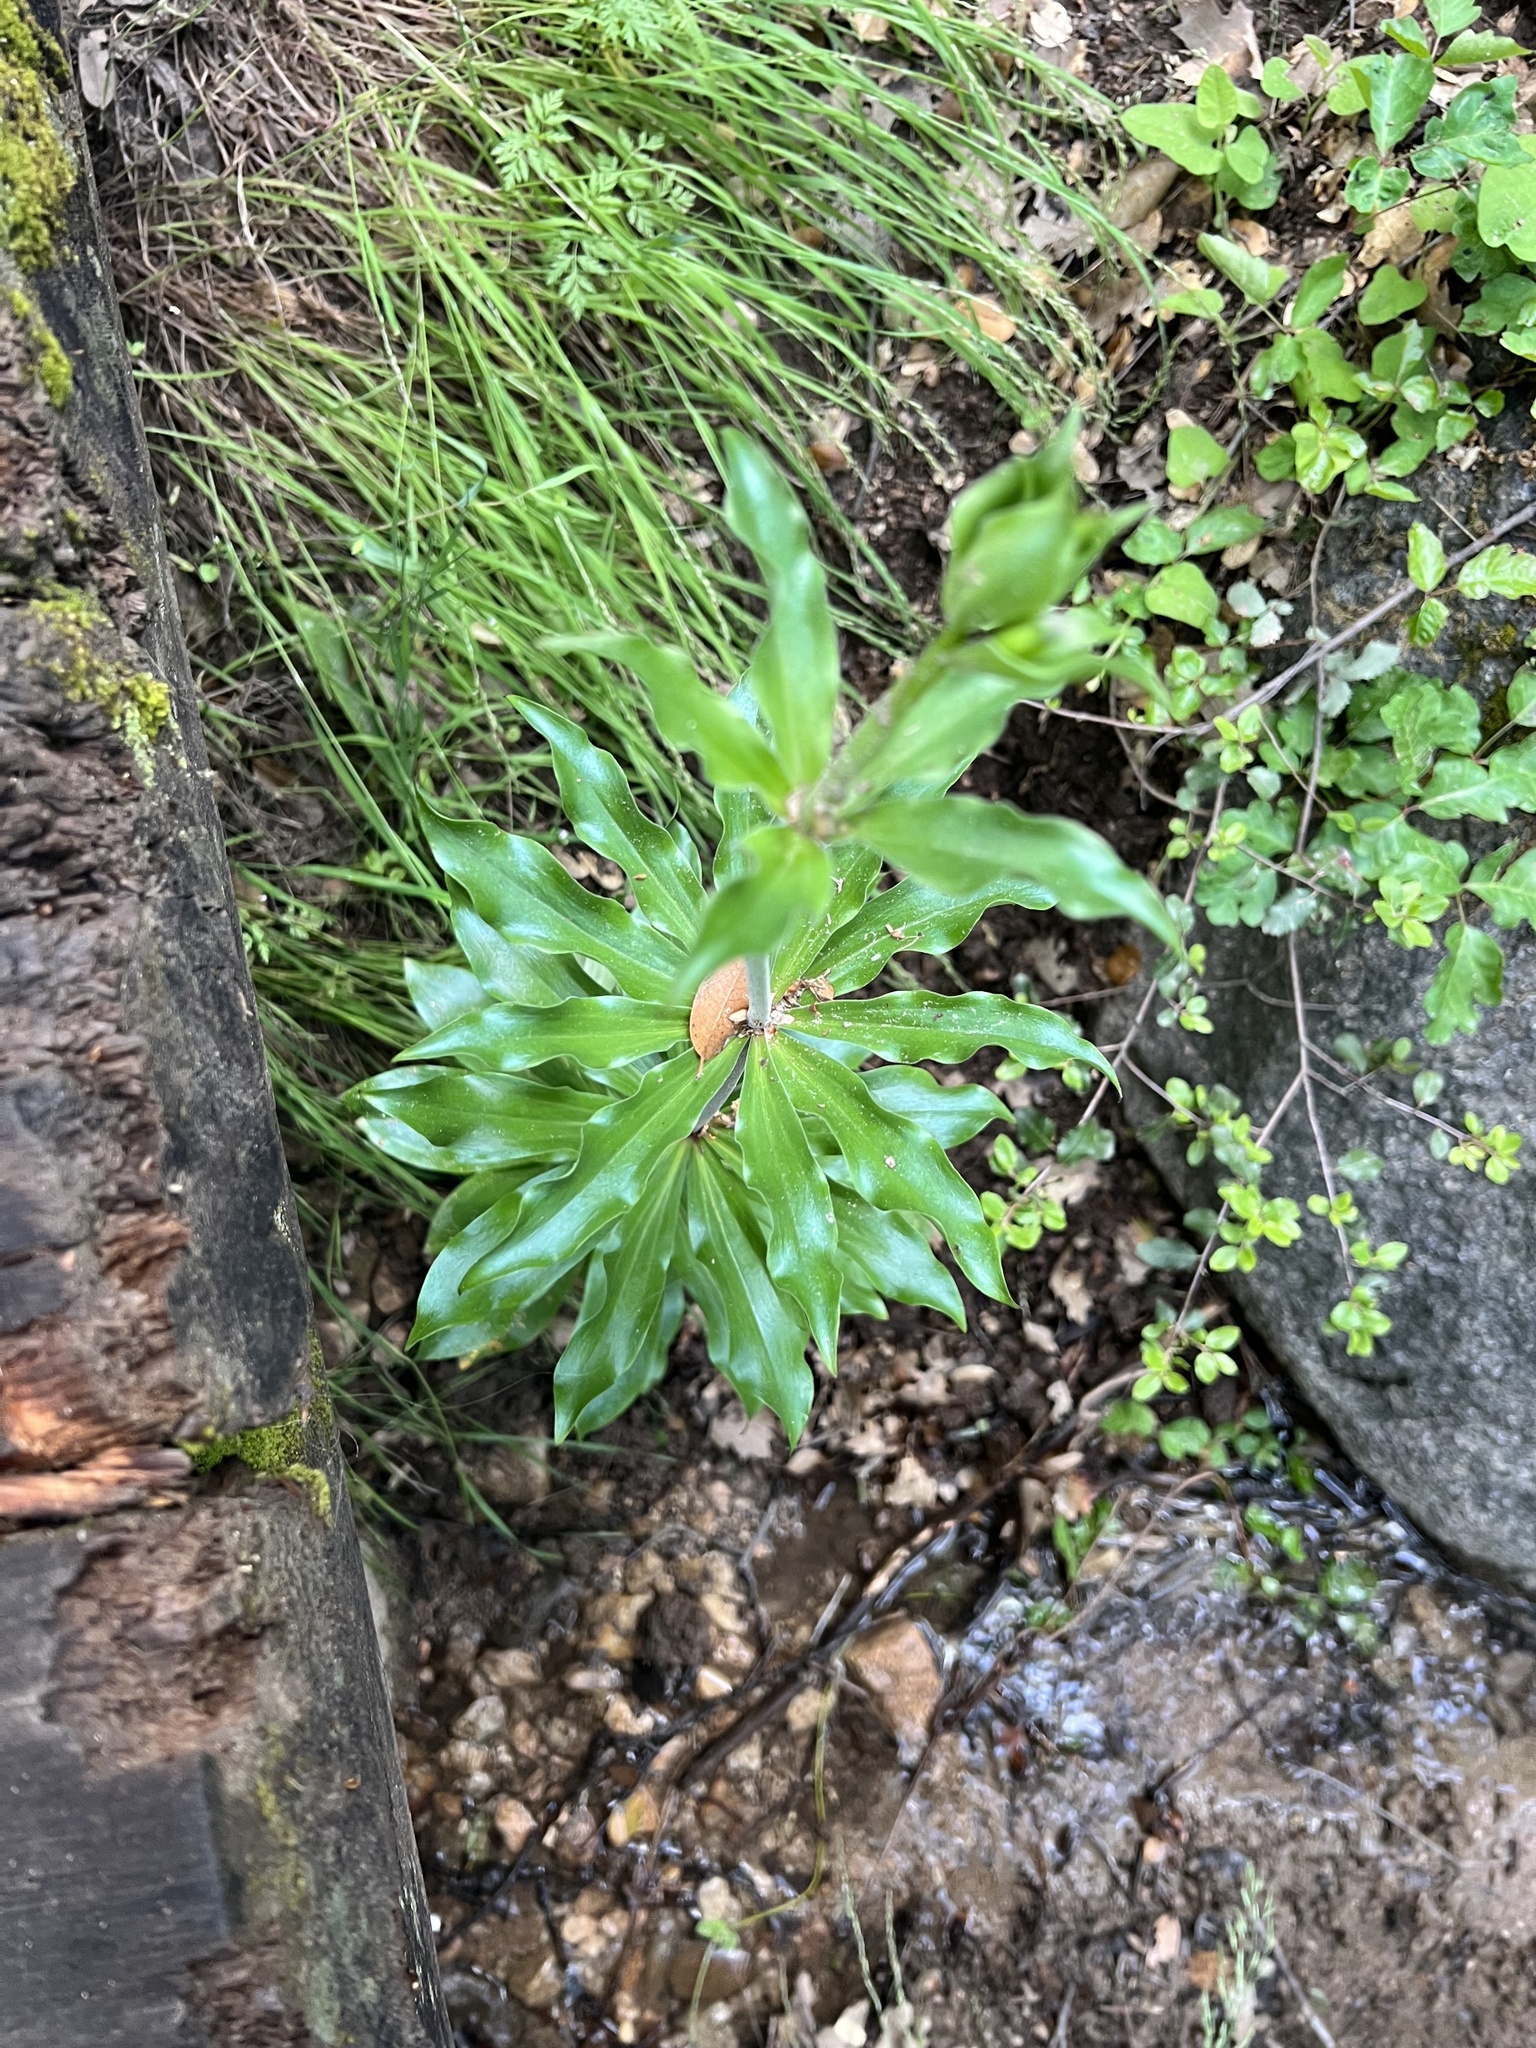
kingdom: Plantae
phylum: Tracheophyta
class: Liliopsida
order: Liliales
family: Liliaceae
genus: Lilium
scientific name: Lilium humboldtii
